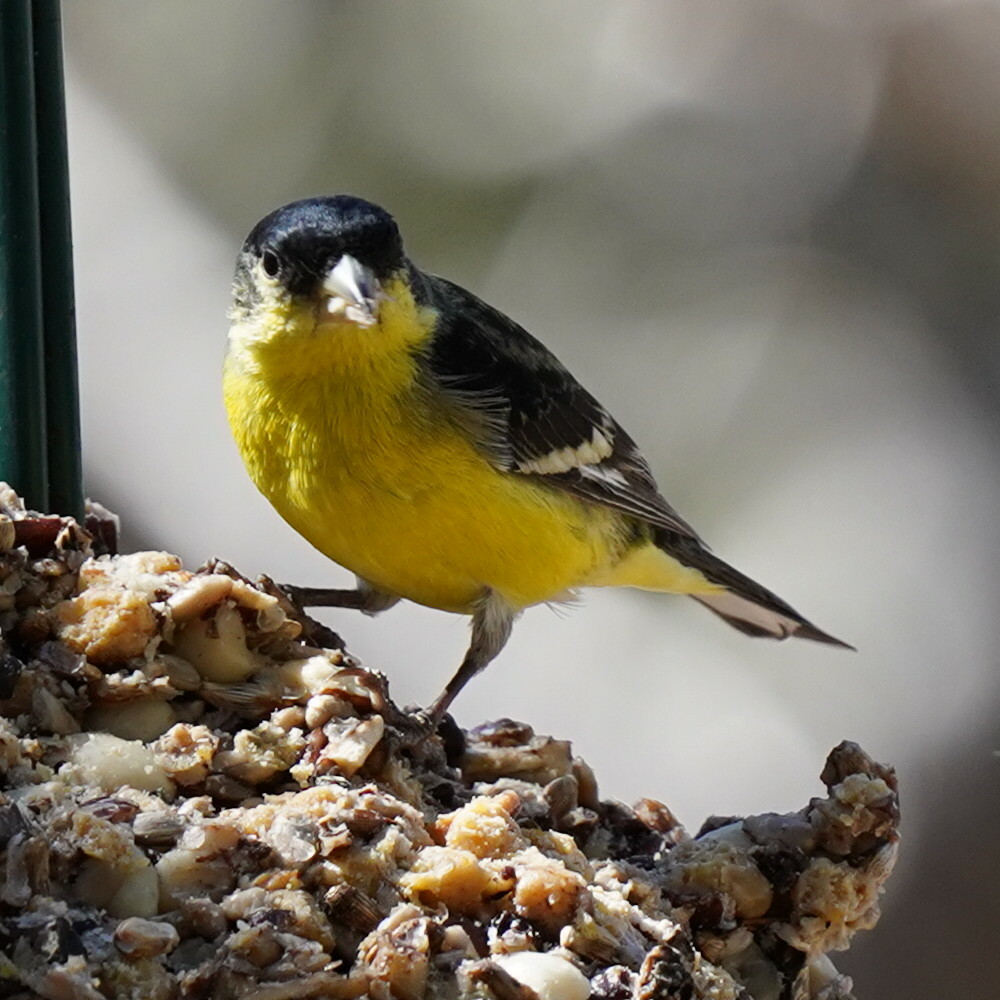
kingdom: Animalia
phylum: Chordata
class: Aves
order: Passeriformes
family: Fringillidae
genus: Spinus
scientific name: Spinus psaltria
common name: Lesser goldfinch
